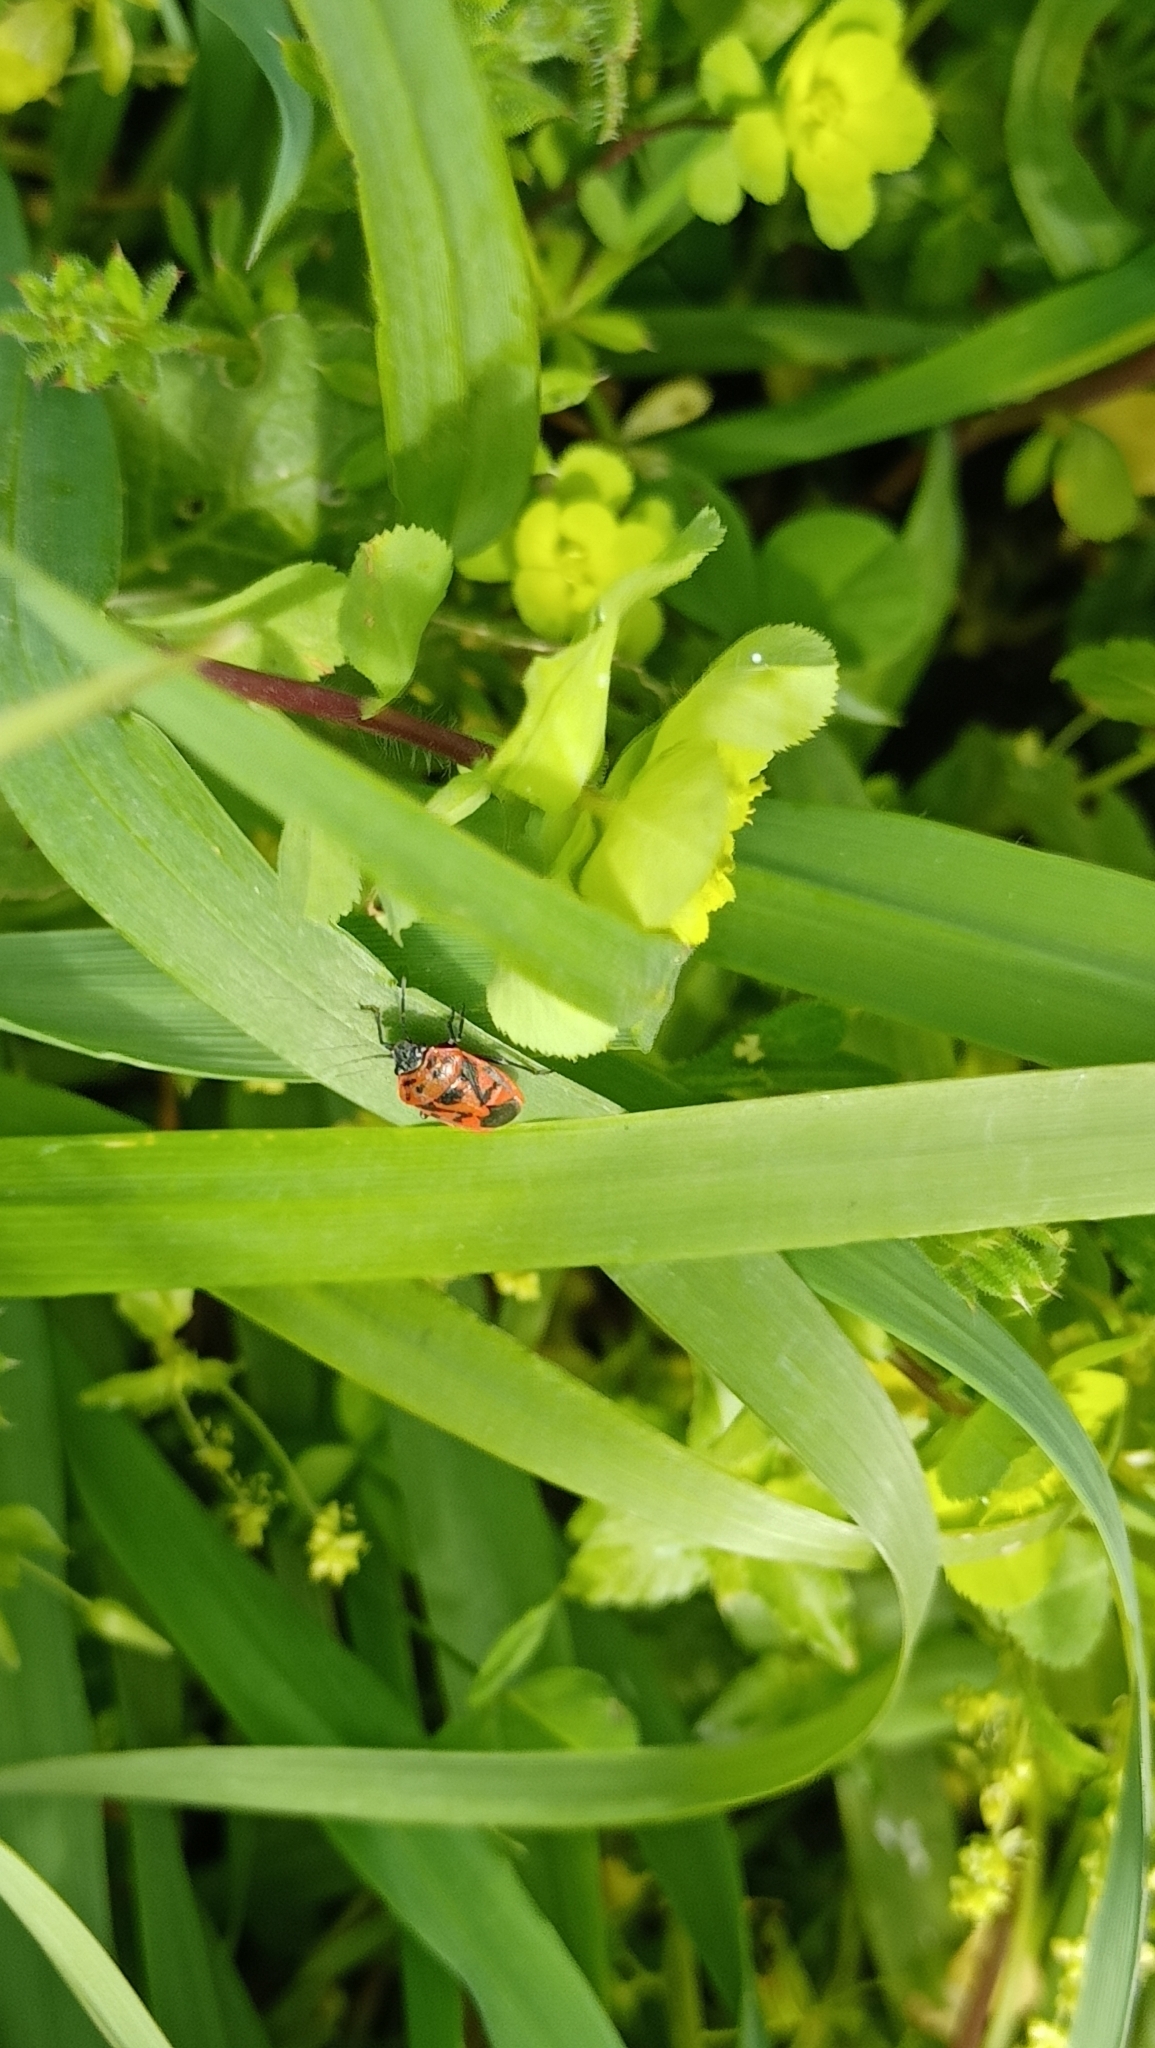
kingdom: Animalia
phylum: Arthropoda
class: Insecta
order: Hemiptera
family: Pentatomidae
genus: Eurydema
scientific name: Eurydema ornata
